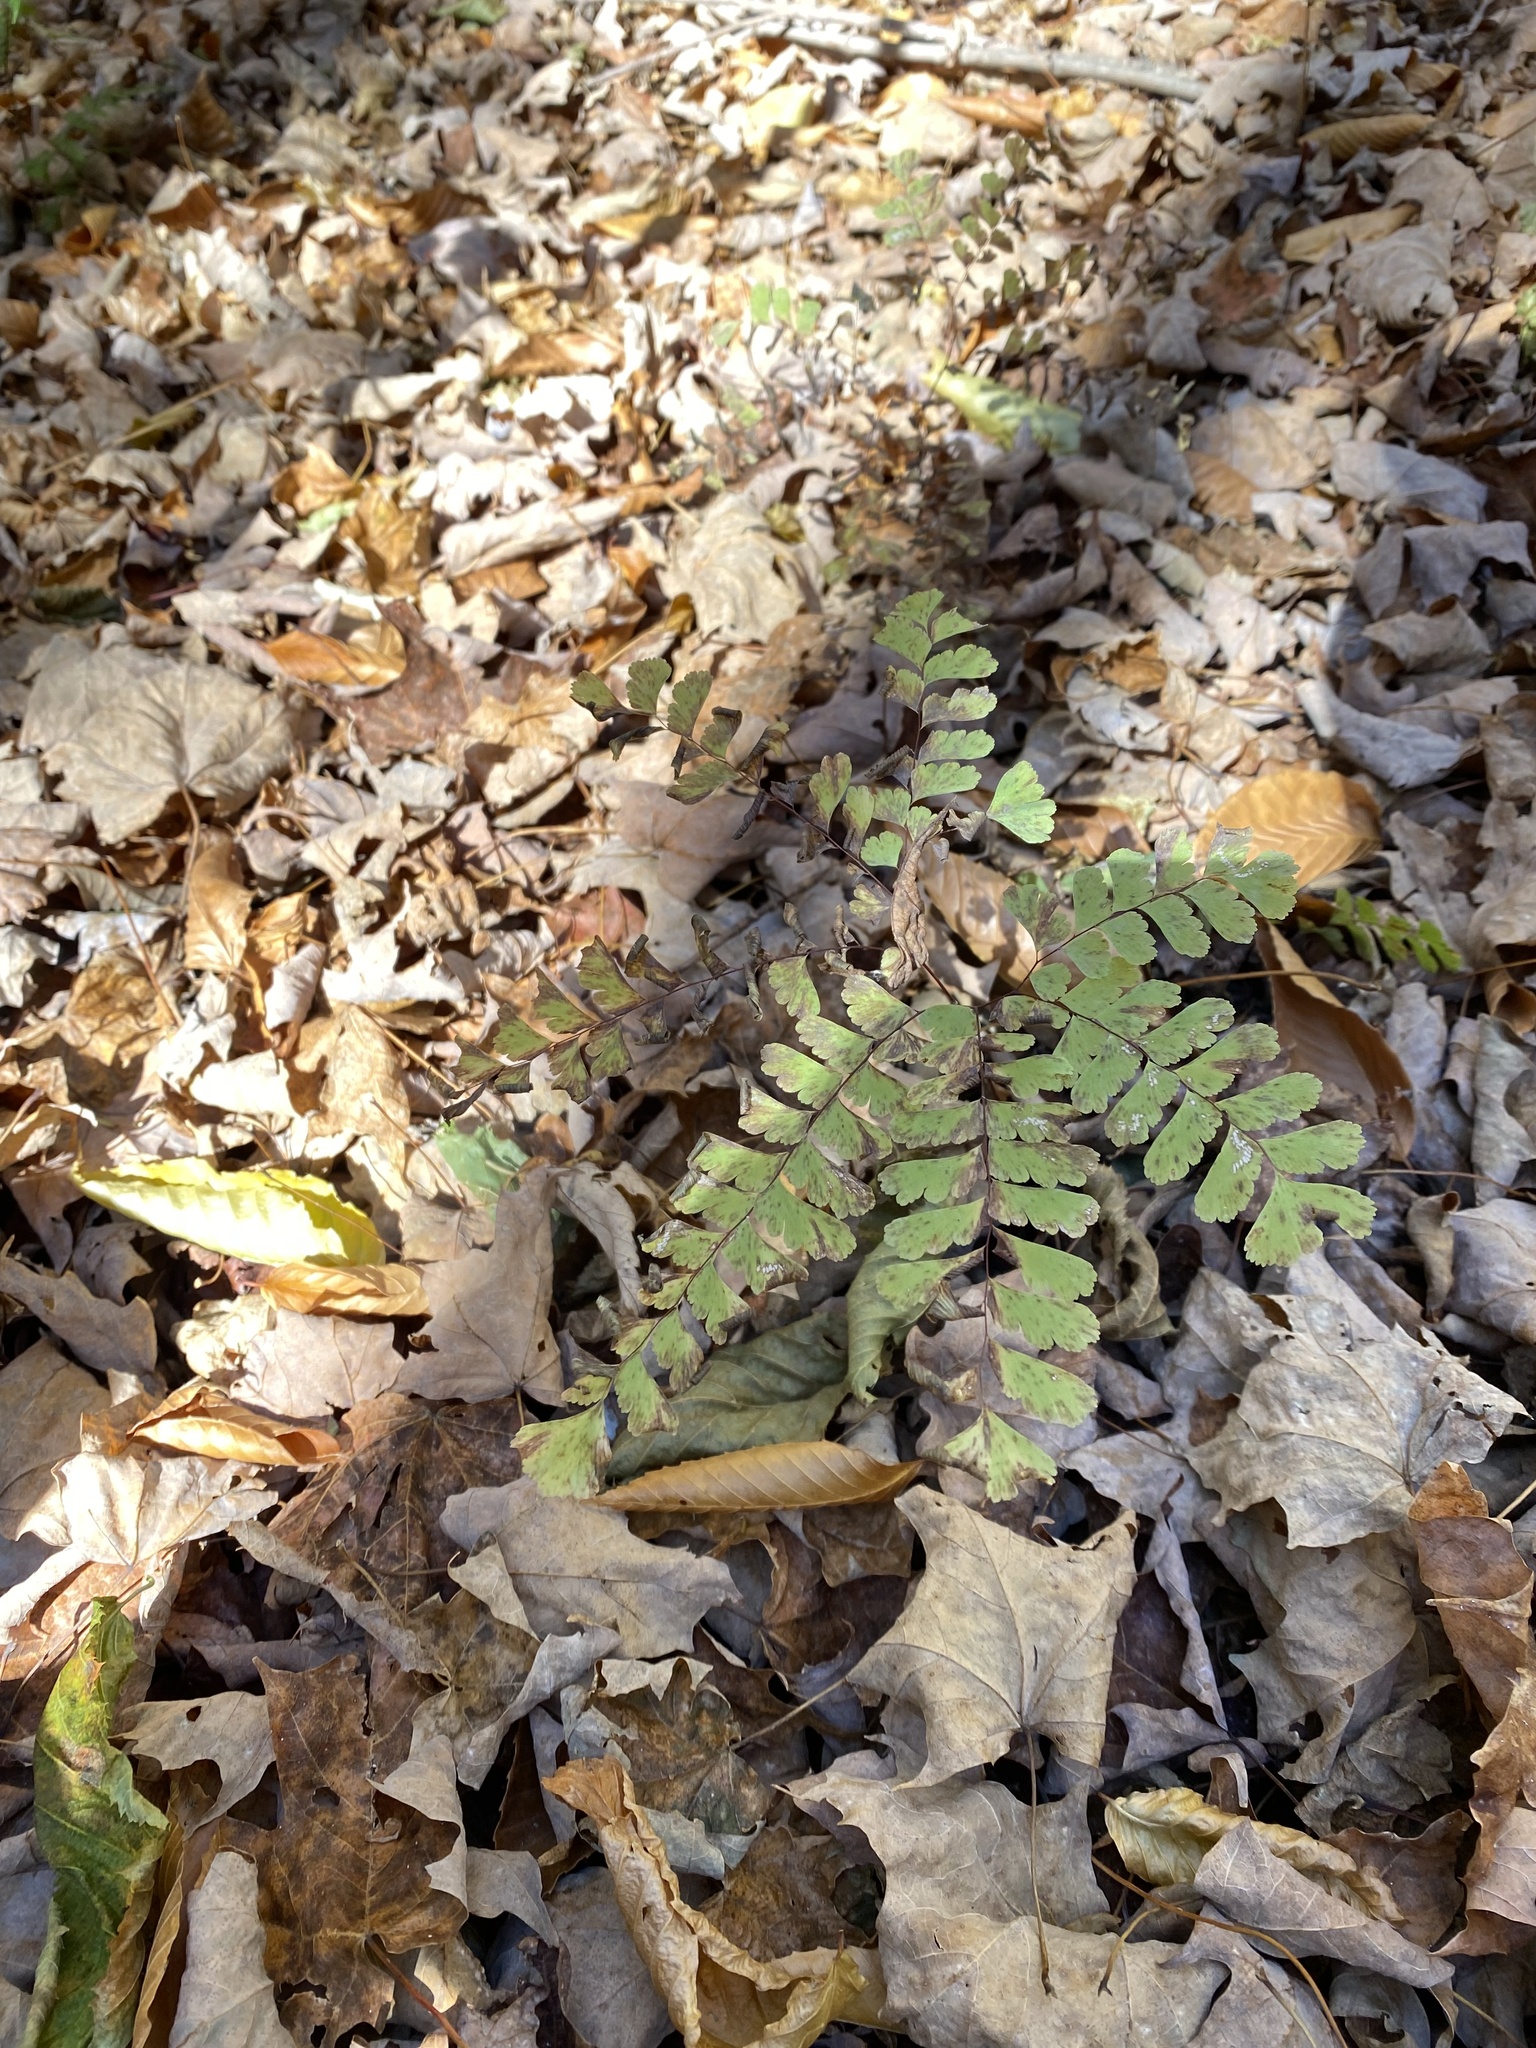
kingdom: Plantae
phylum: Tracheophyta
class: Polypodiopsida
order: Polypodiales
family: Pteridaceae
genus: Adiantum
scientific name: Adiantum pedatum
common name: Five-finger fern
